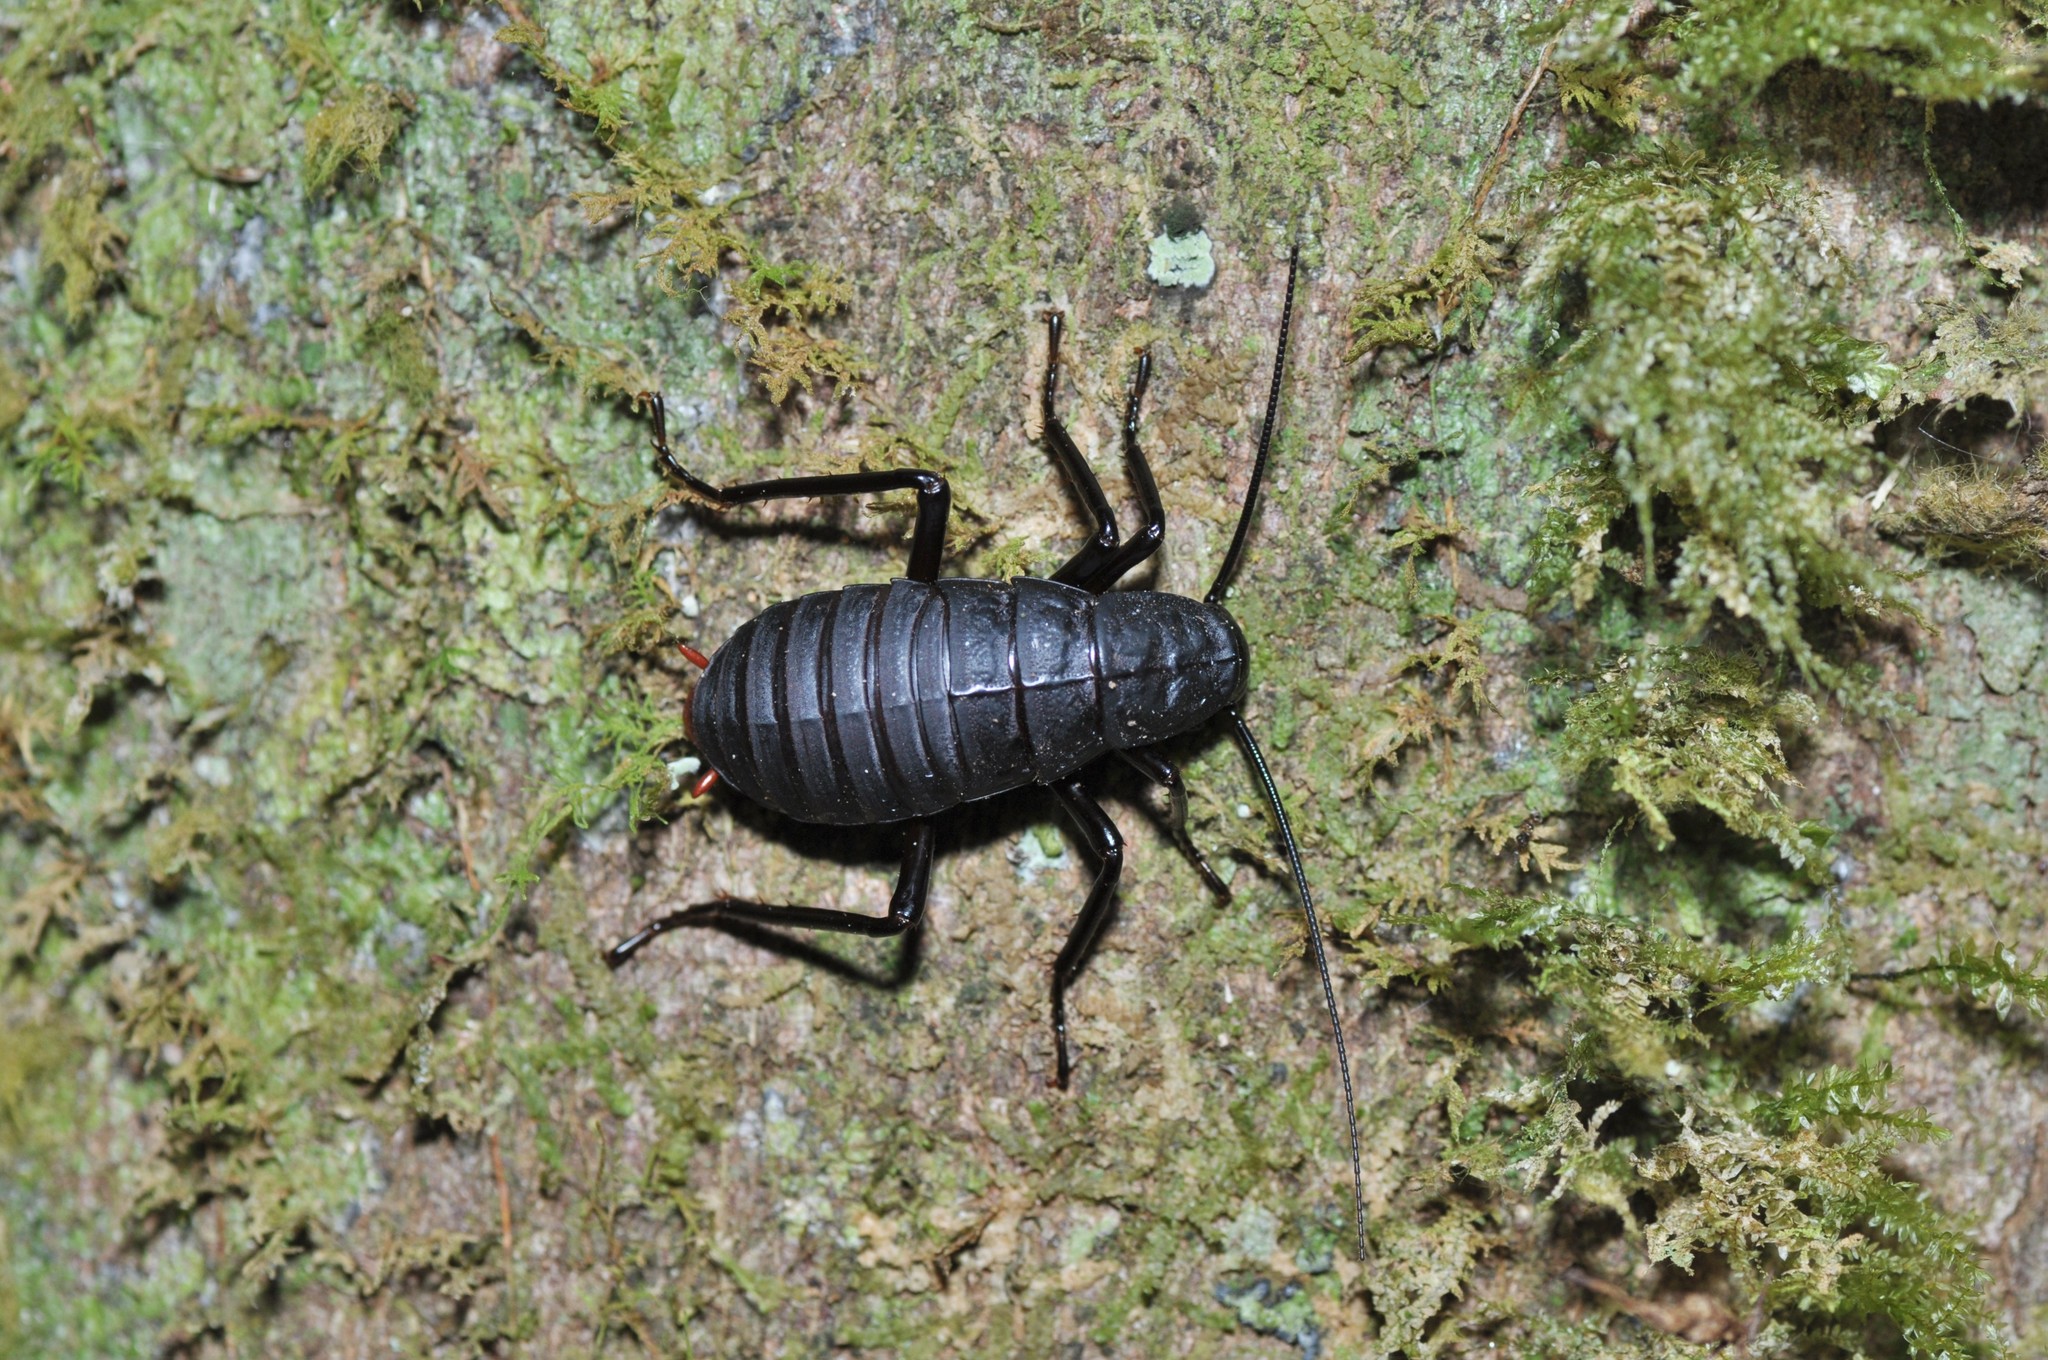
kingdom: Animalia
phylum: Arthropoda
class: Insecta
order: Blattodea
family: Blattidae
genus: Archiblatta
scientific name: Archiblatta beccarii
